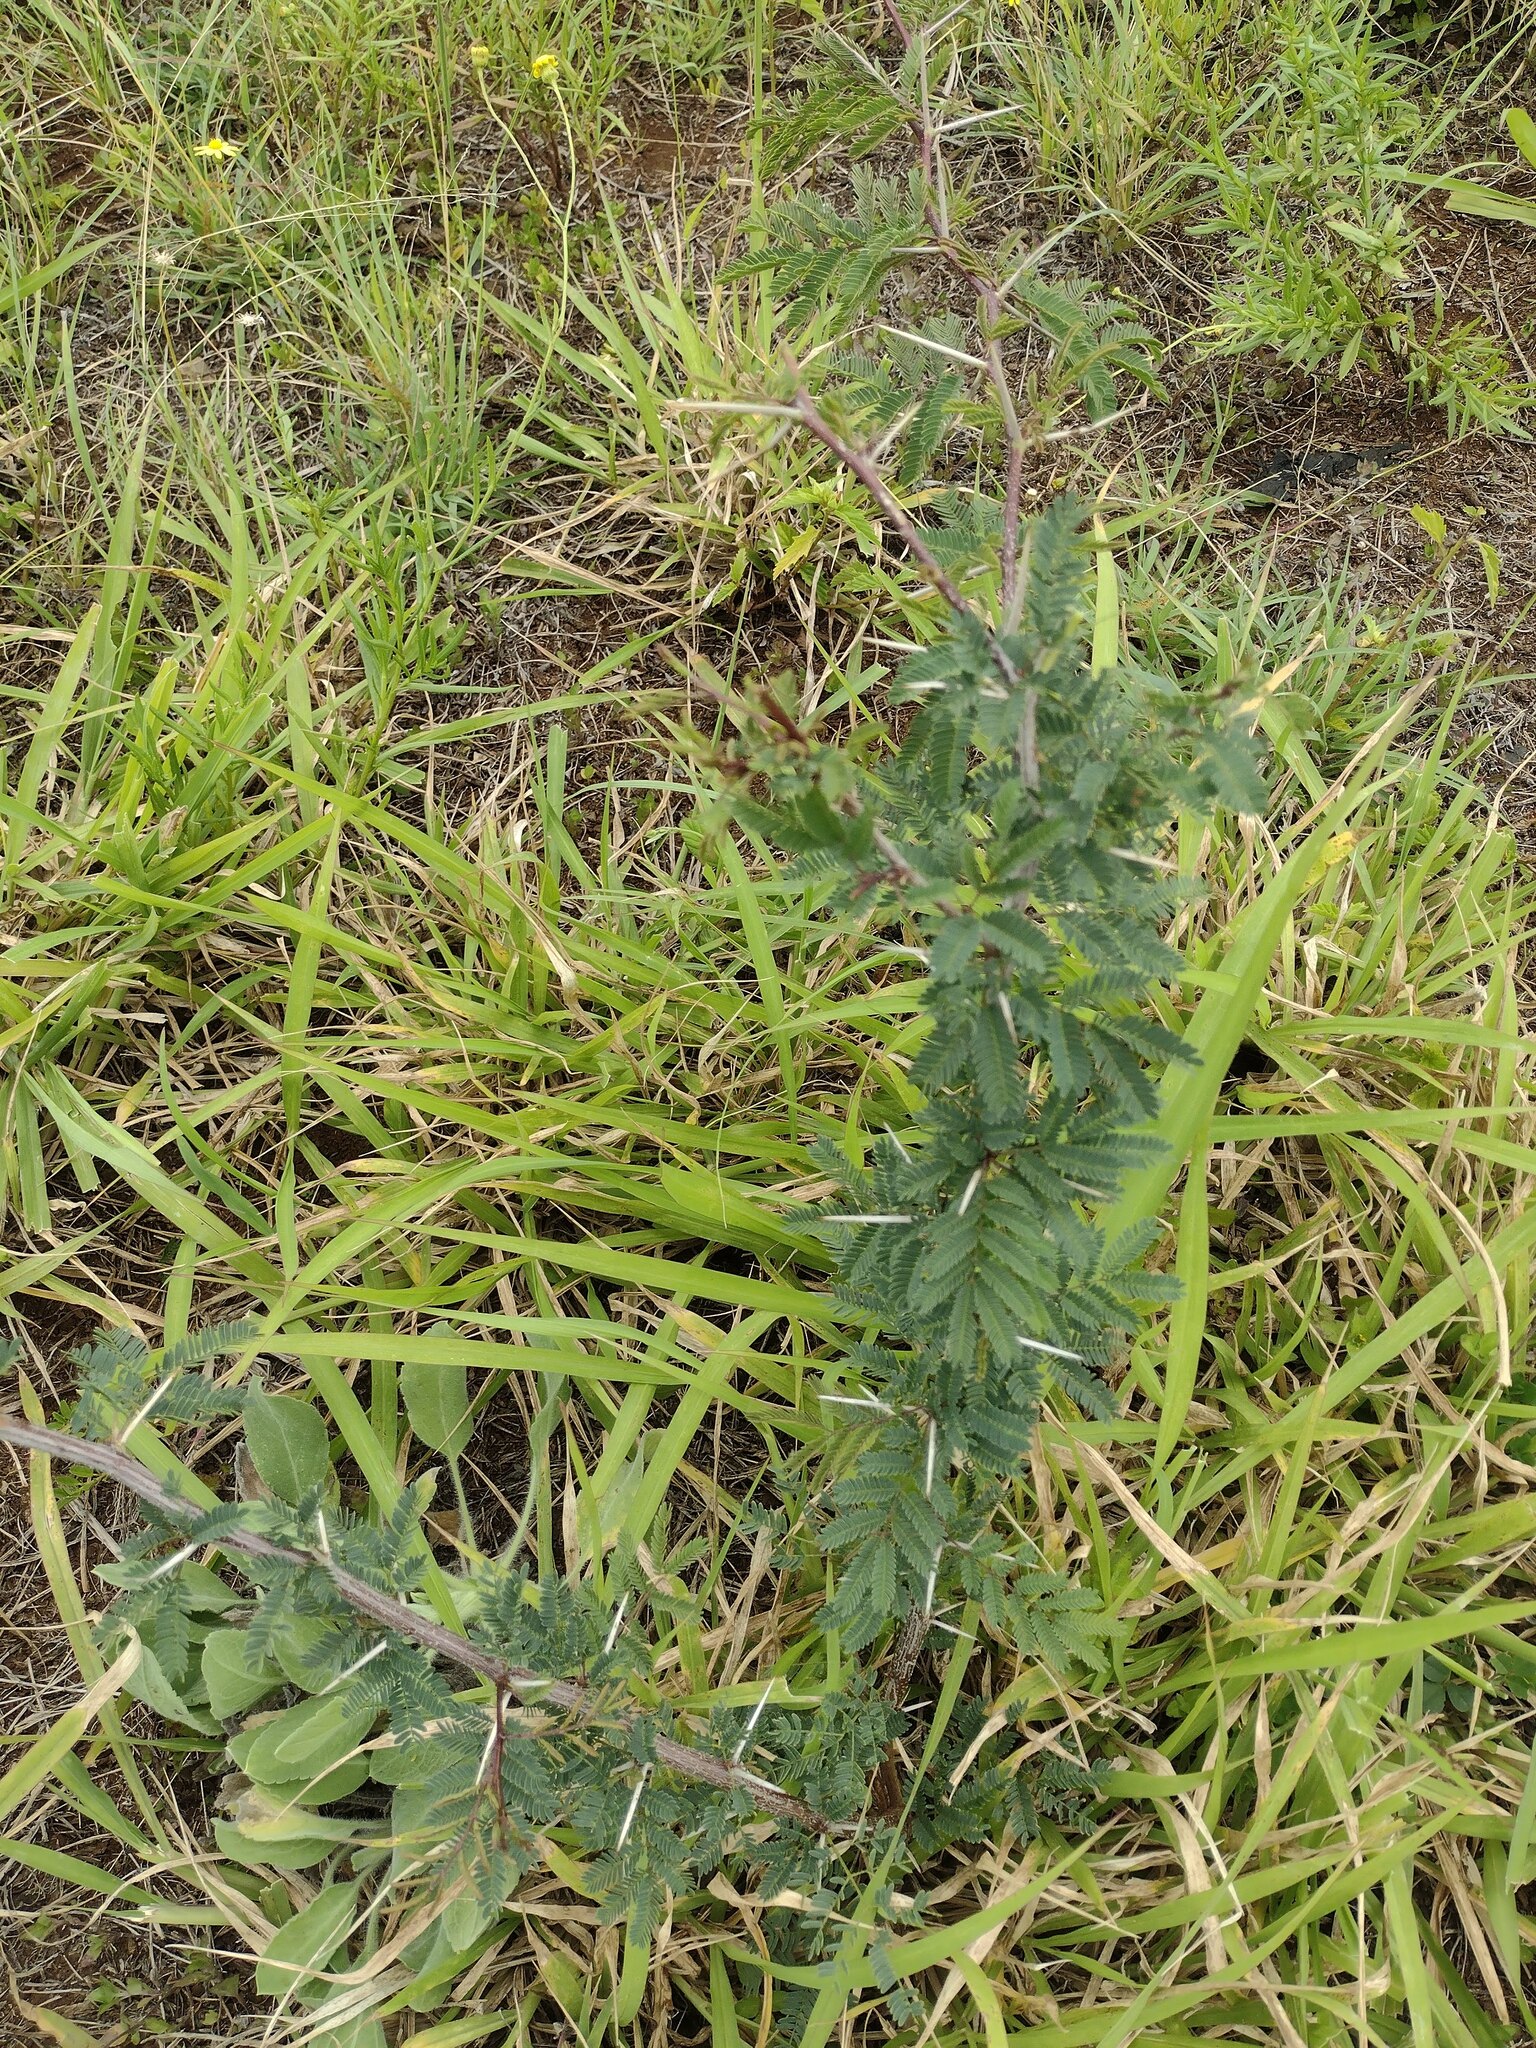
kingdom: Plantae
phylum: Tracheophyta
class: Magnoliopsida
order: Fabales
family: Fabaceae
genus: Vachellia
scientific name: Vachellia farnesiana
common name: Sweet acacia
